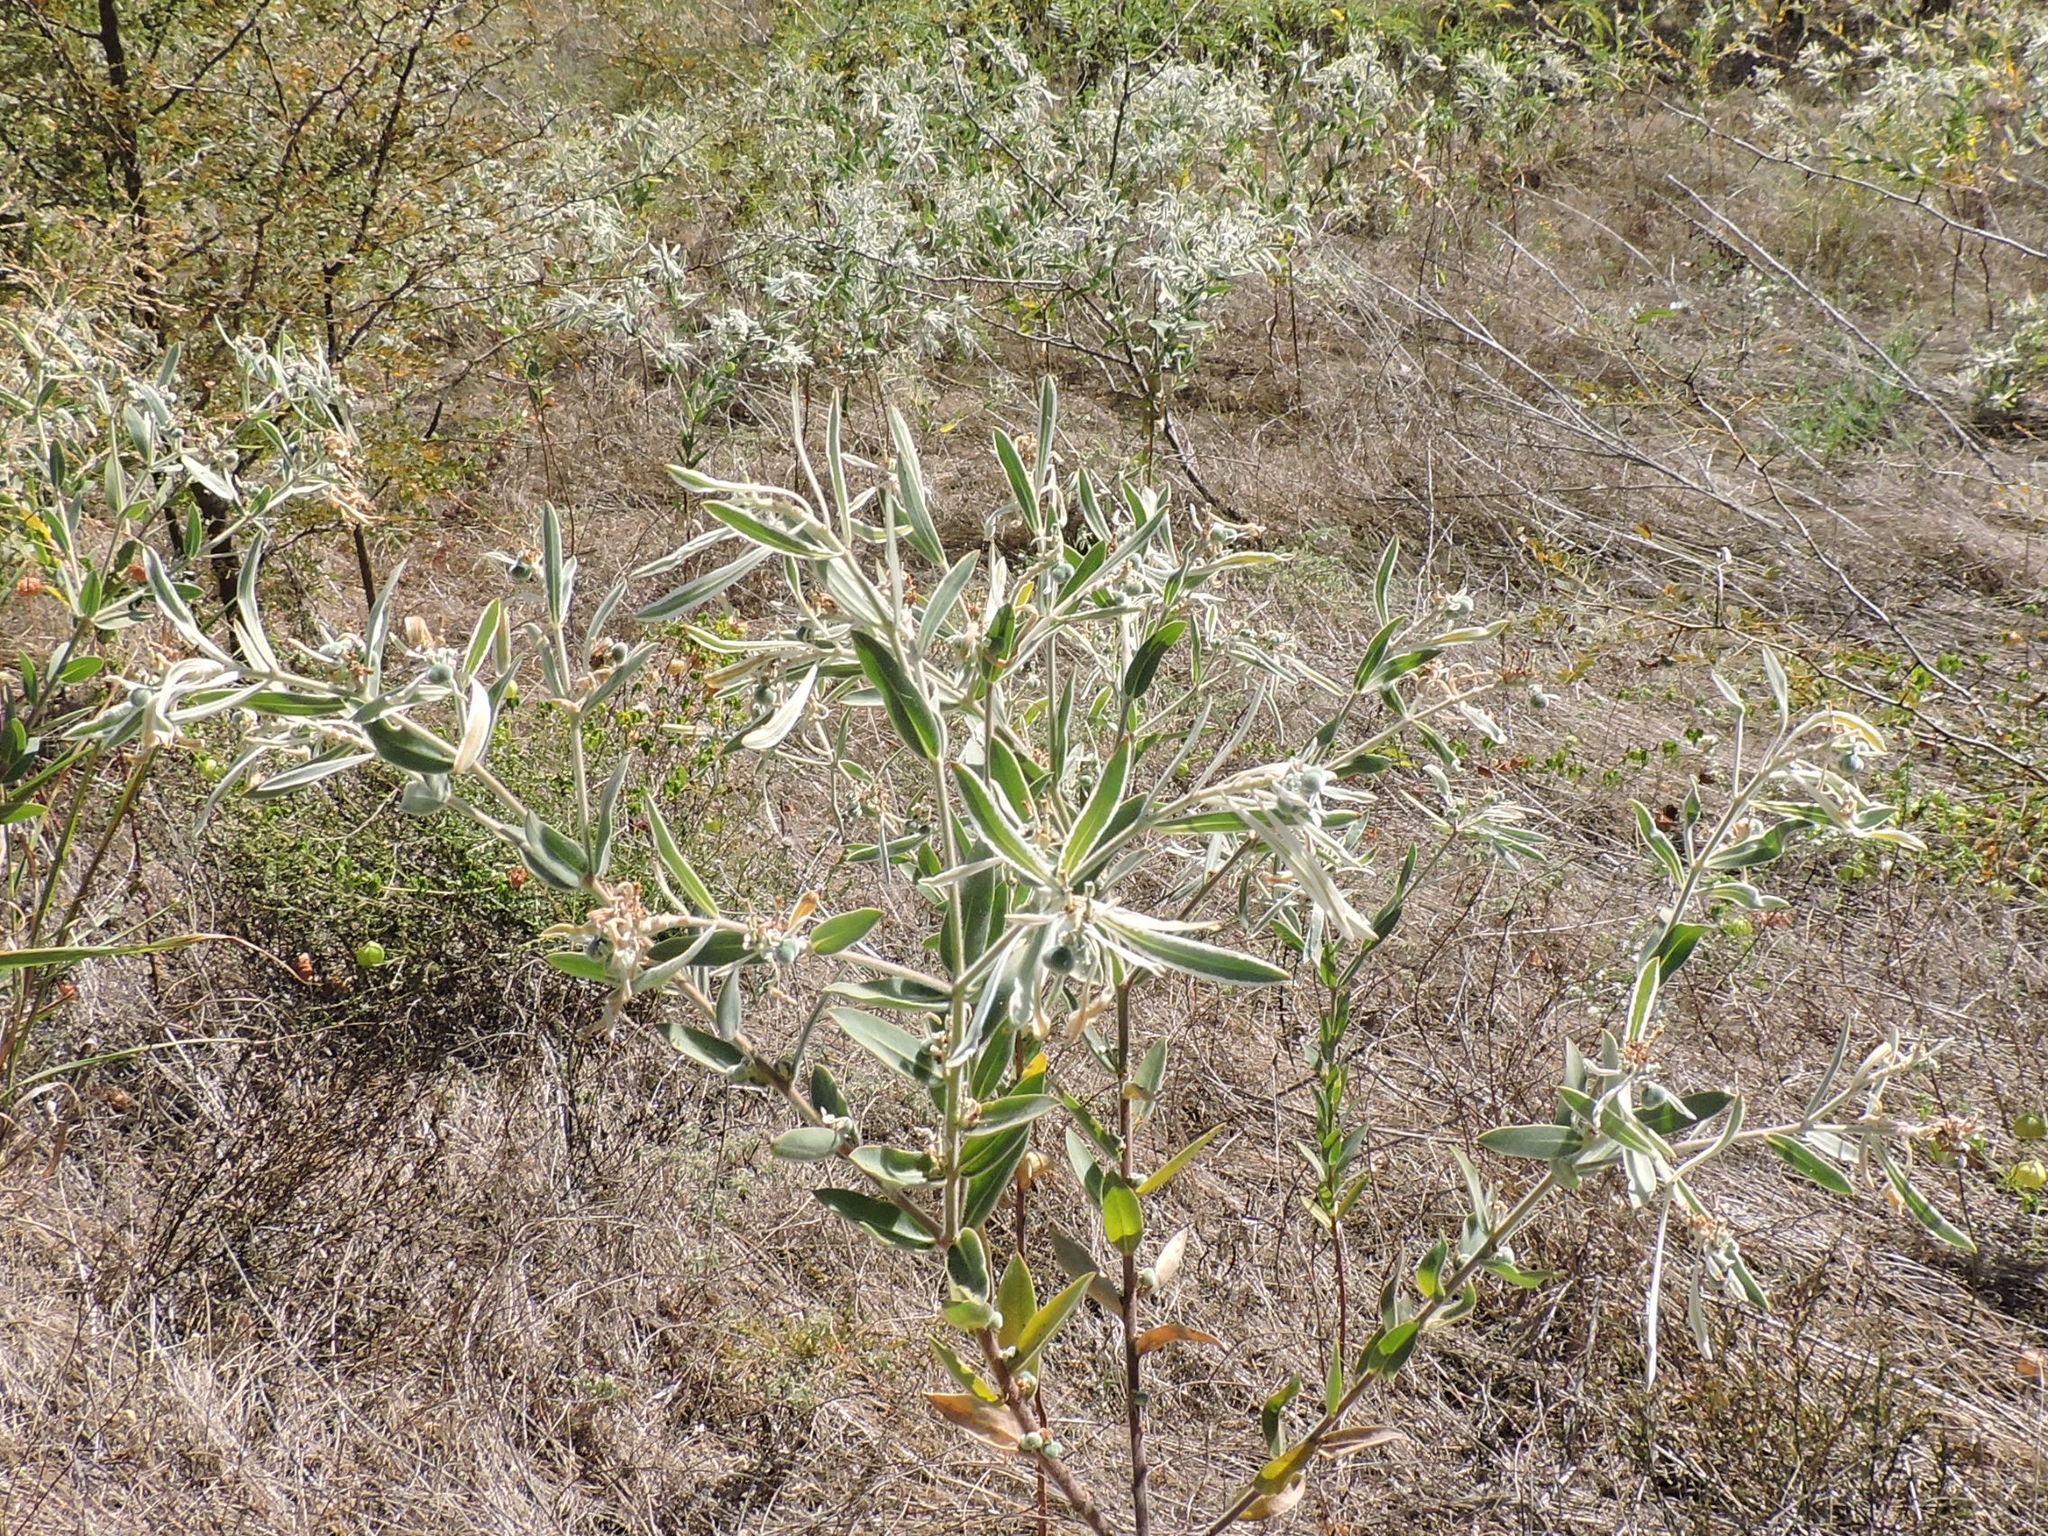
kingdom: Plantae
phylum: Tracheophyta
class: Magnoliopsida
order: Malpighiales
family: Euphorbiaceae
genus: Euphorbia
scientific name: Euphorbia bicolor
